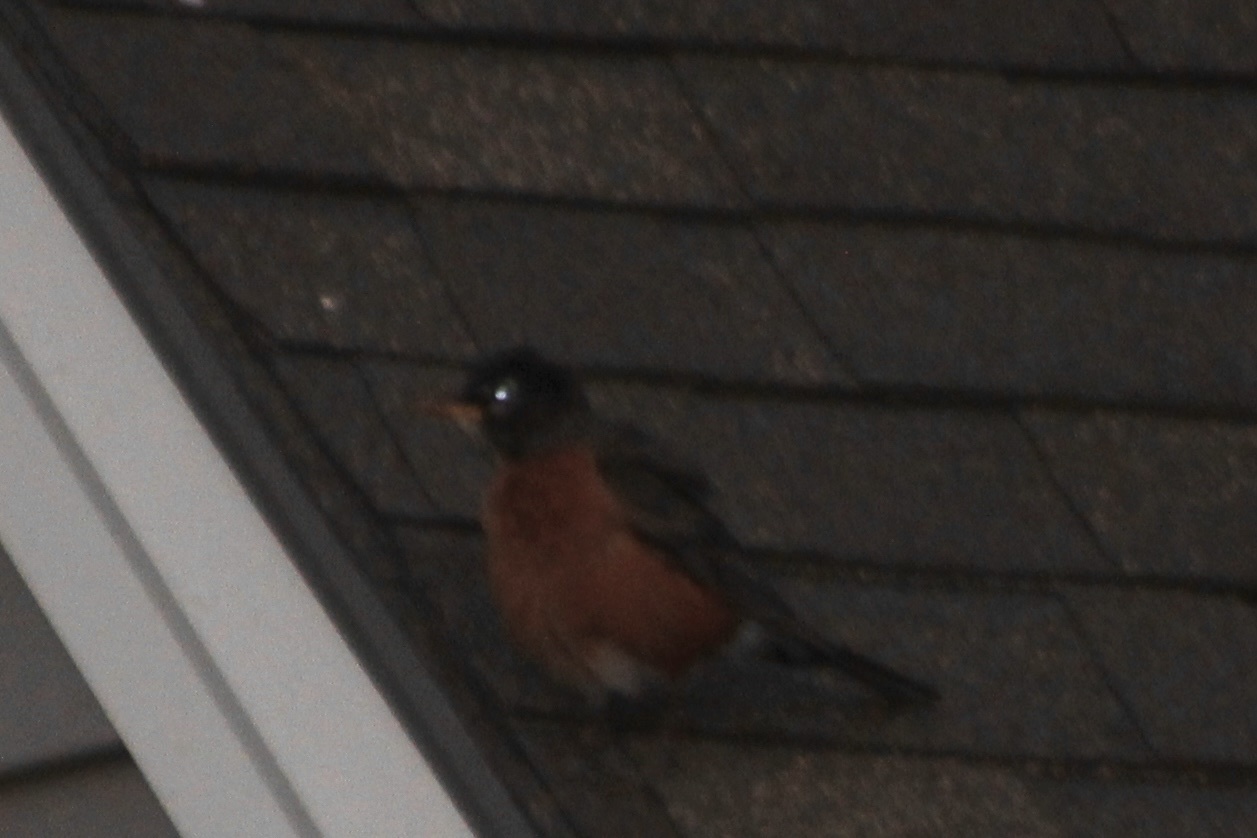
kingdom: Animalia
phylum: Chordata
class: Aves
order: Passeriformes
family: Turdidae
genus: Turdus
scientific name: Turdus migratorius
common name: American robin
